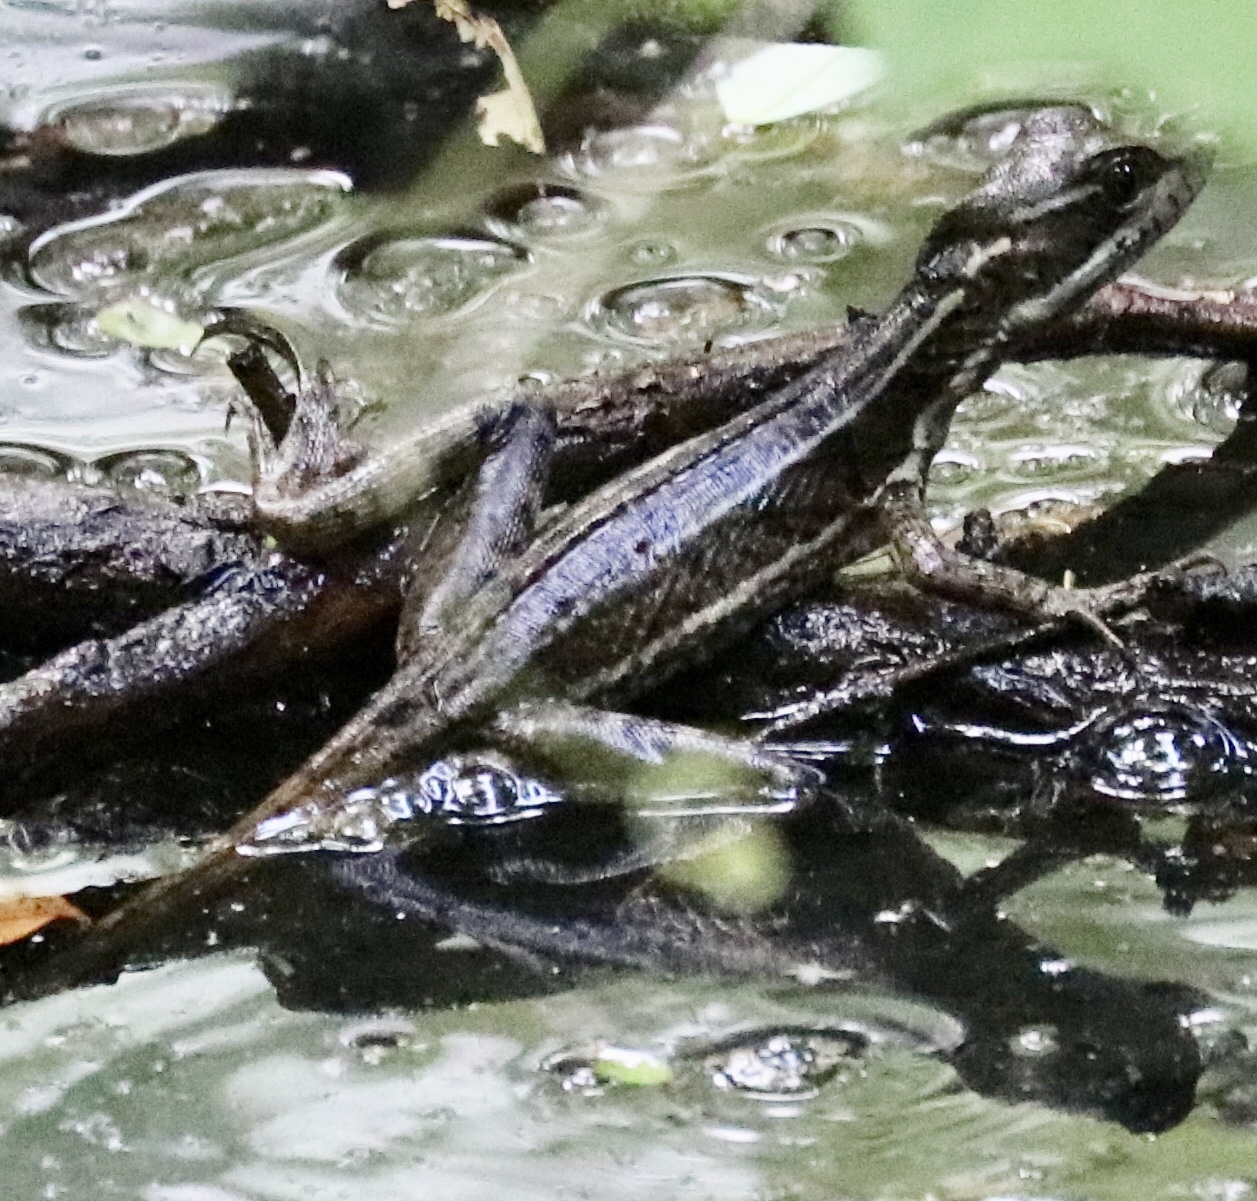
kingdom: Animalia
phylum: Chordata
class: Squamata
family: Corytophanidae
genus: Basiliscus
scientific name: Basiliscus basiliscus
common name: Common basilisk
